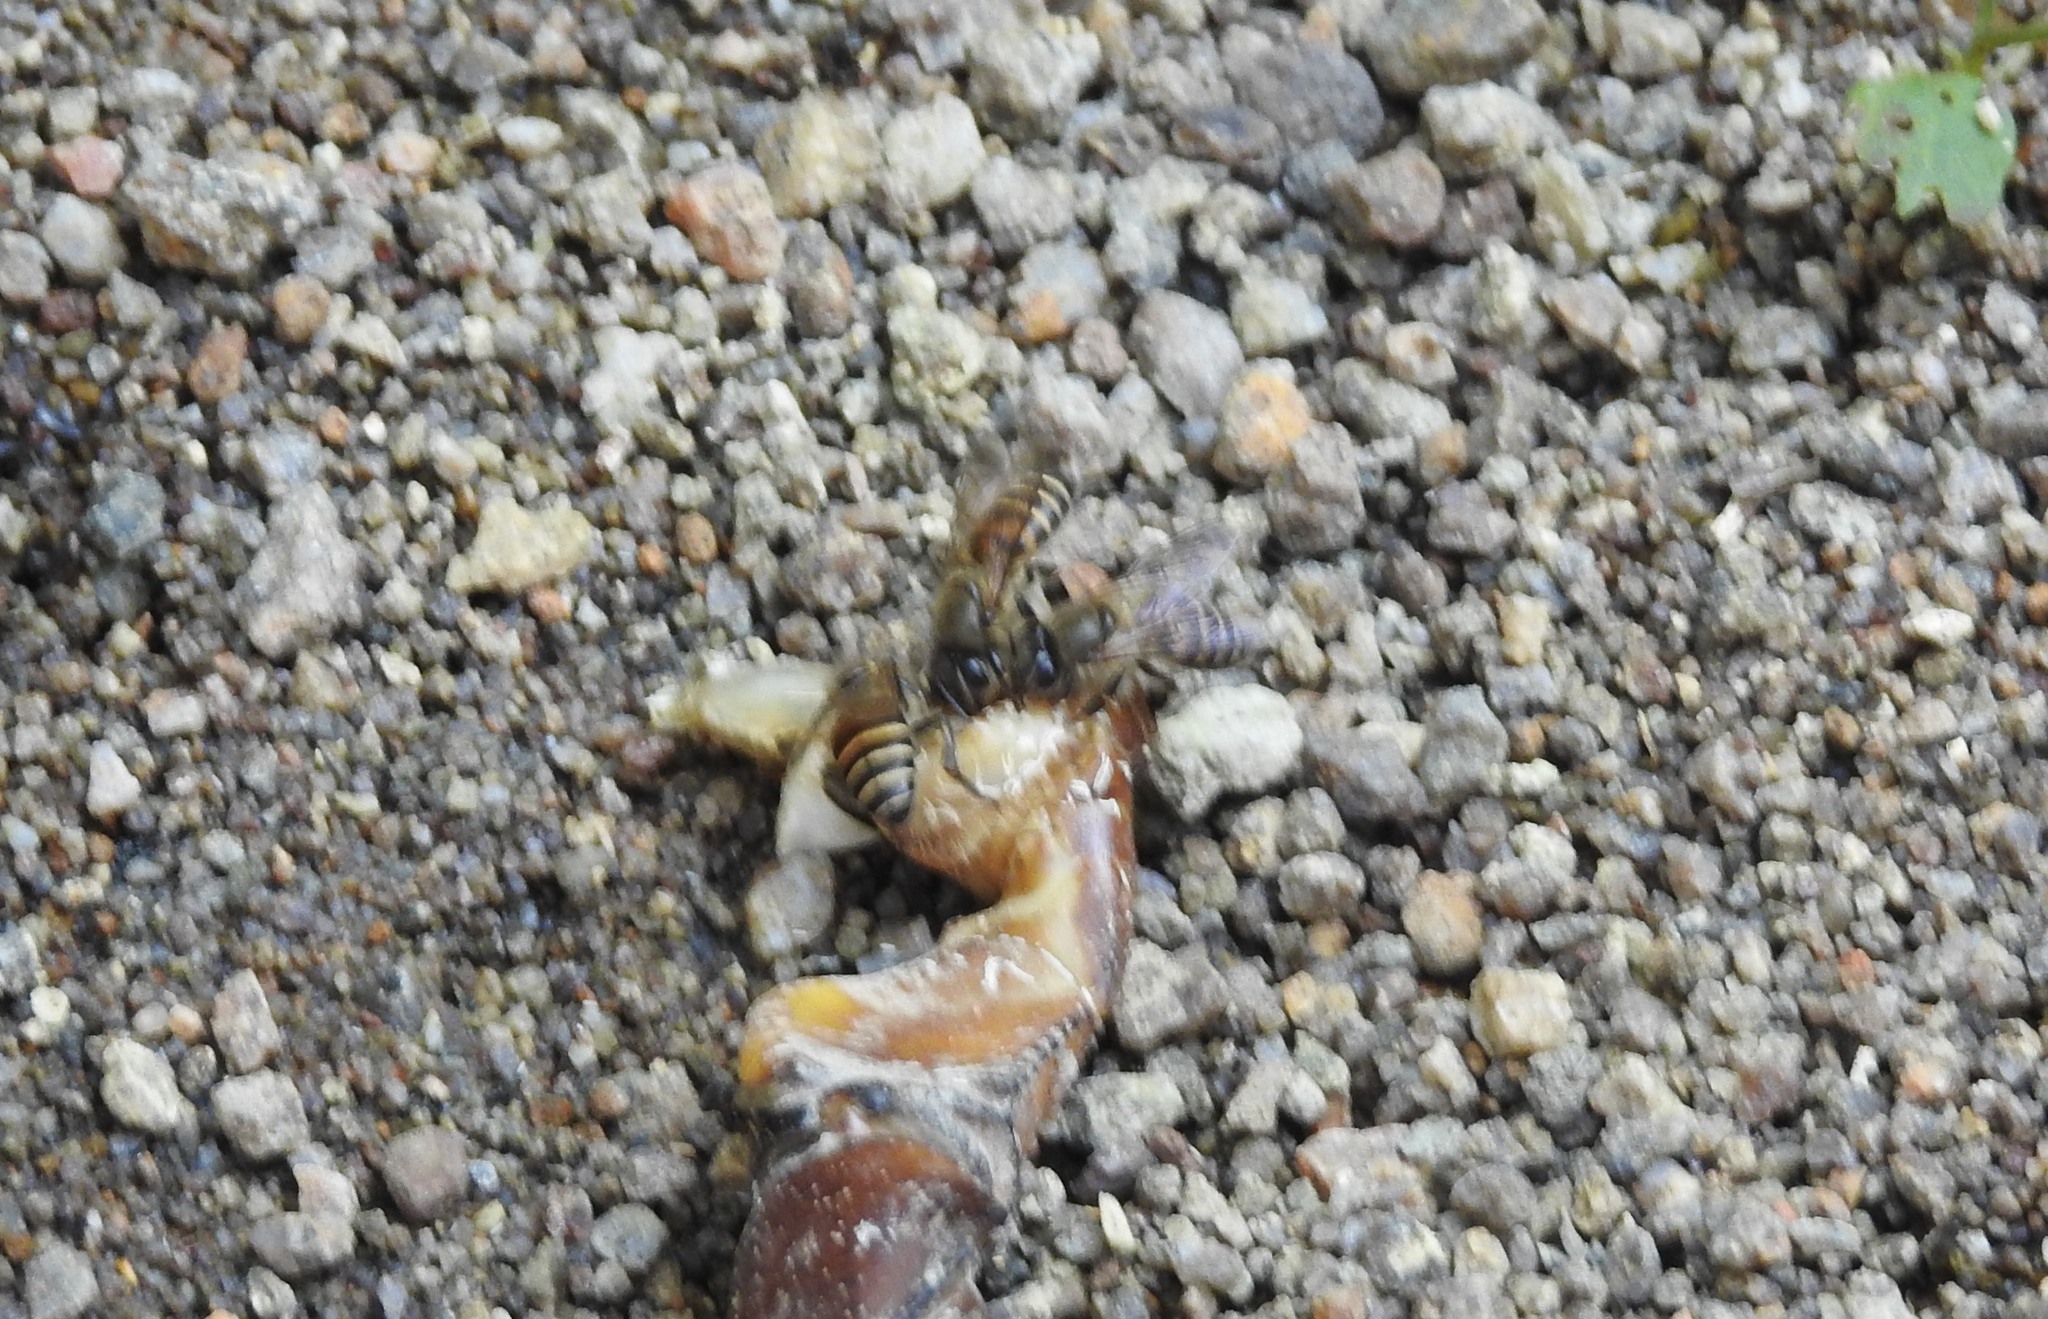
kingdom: Animalia
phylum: Arthropoda
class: Insecta
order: Hymenoptera
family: Apidae
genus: Apis
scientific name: Apis cerana
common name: Honey bee
